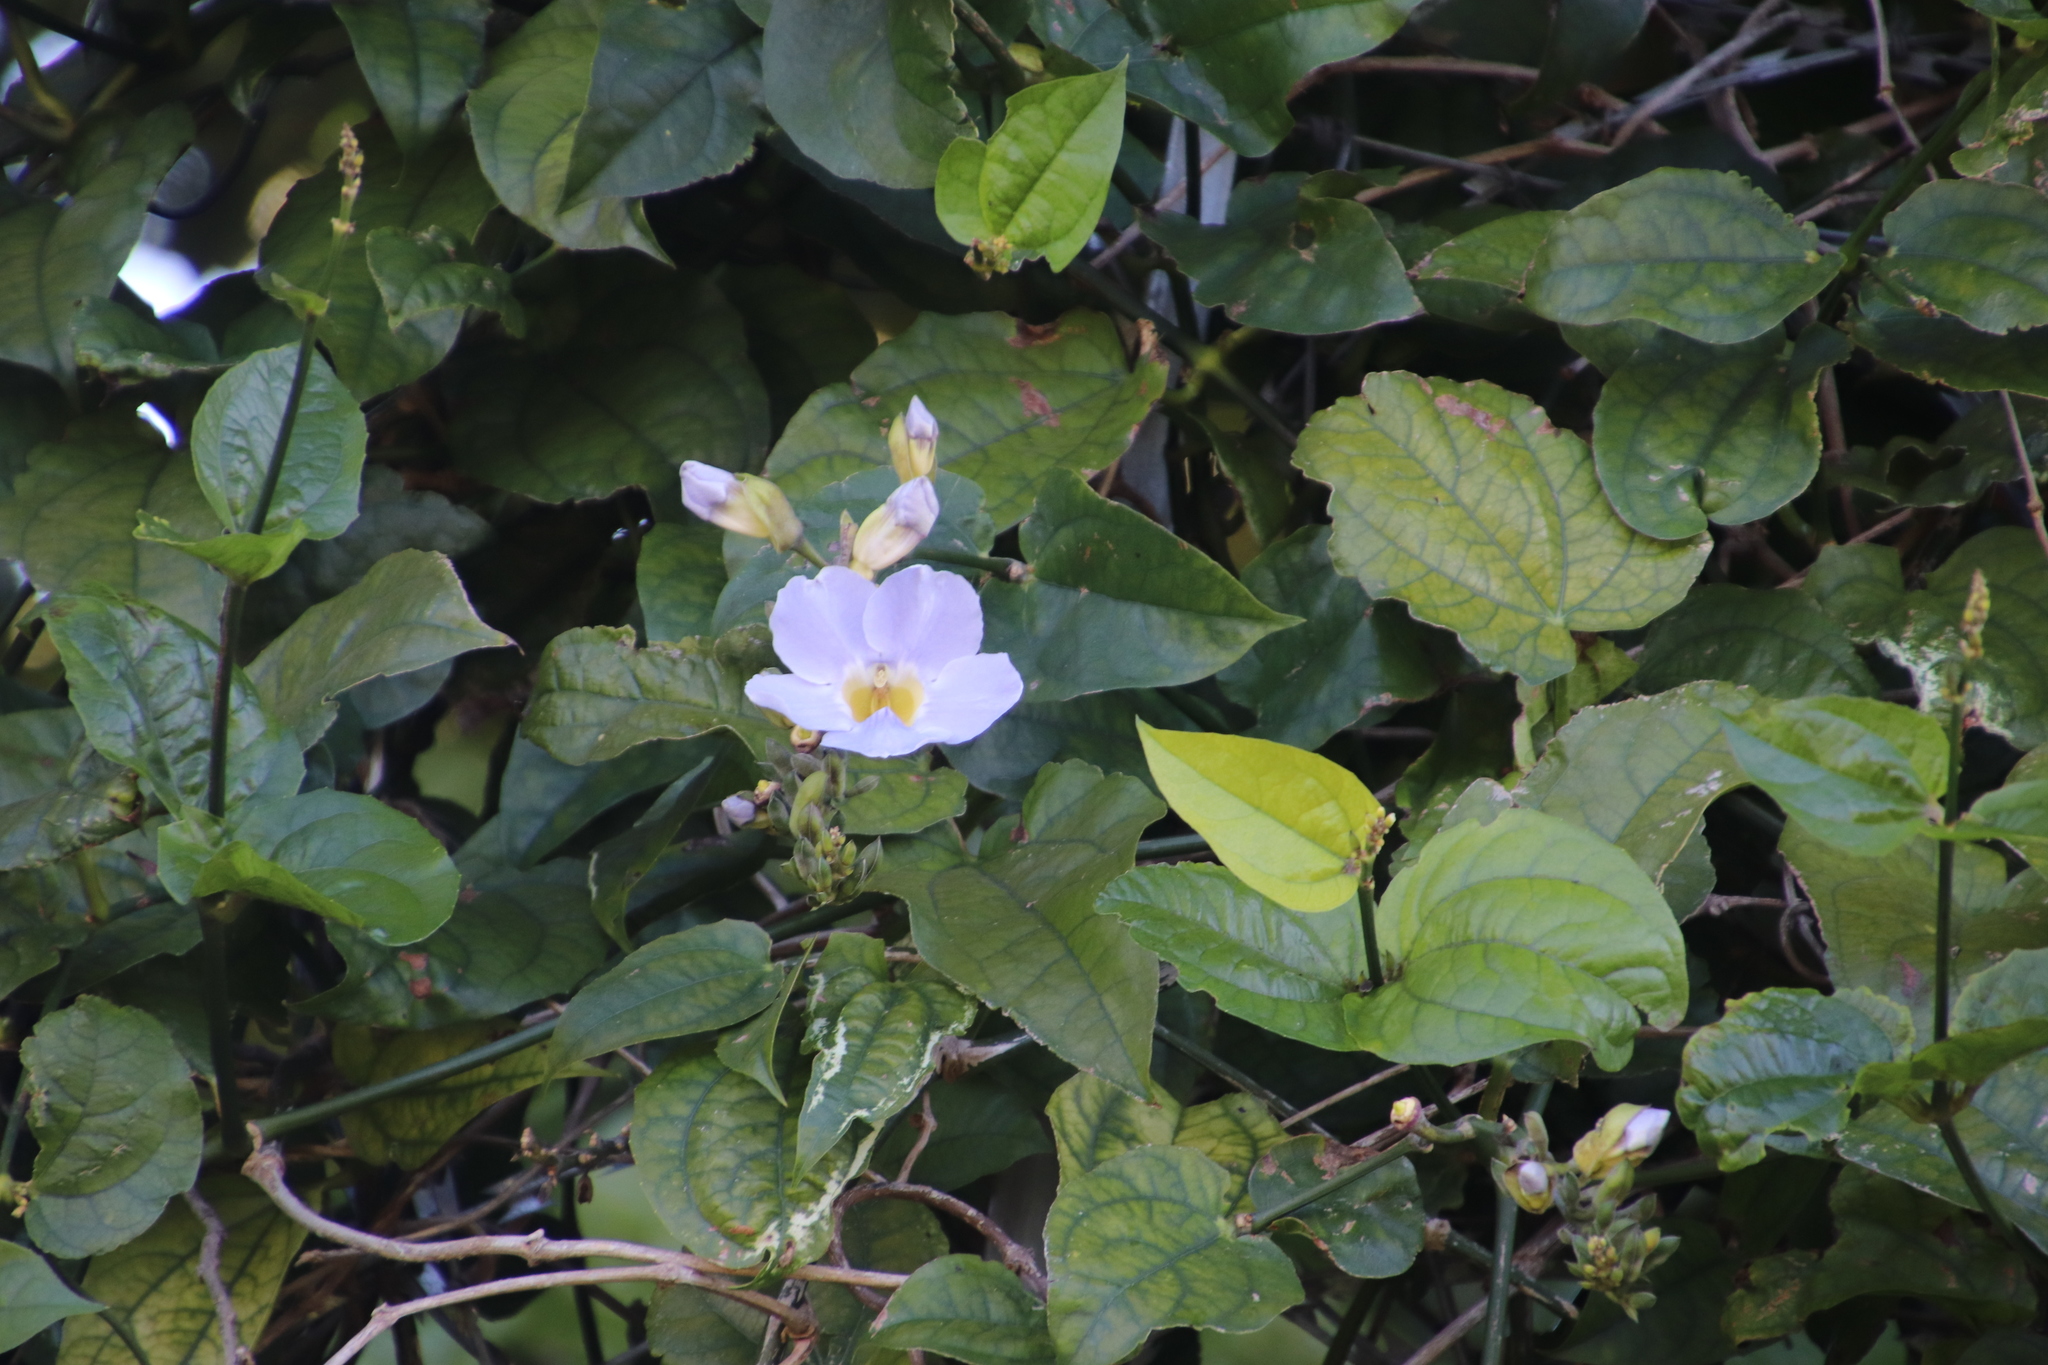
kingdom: Plantae
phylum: Tracheophyta
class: Magnoliopsida
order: Lamiales
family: Acanthaceae
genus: Thunbergia
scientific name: Thunbergia grandiflora
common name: Bengal trumpet
